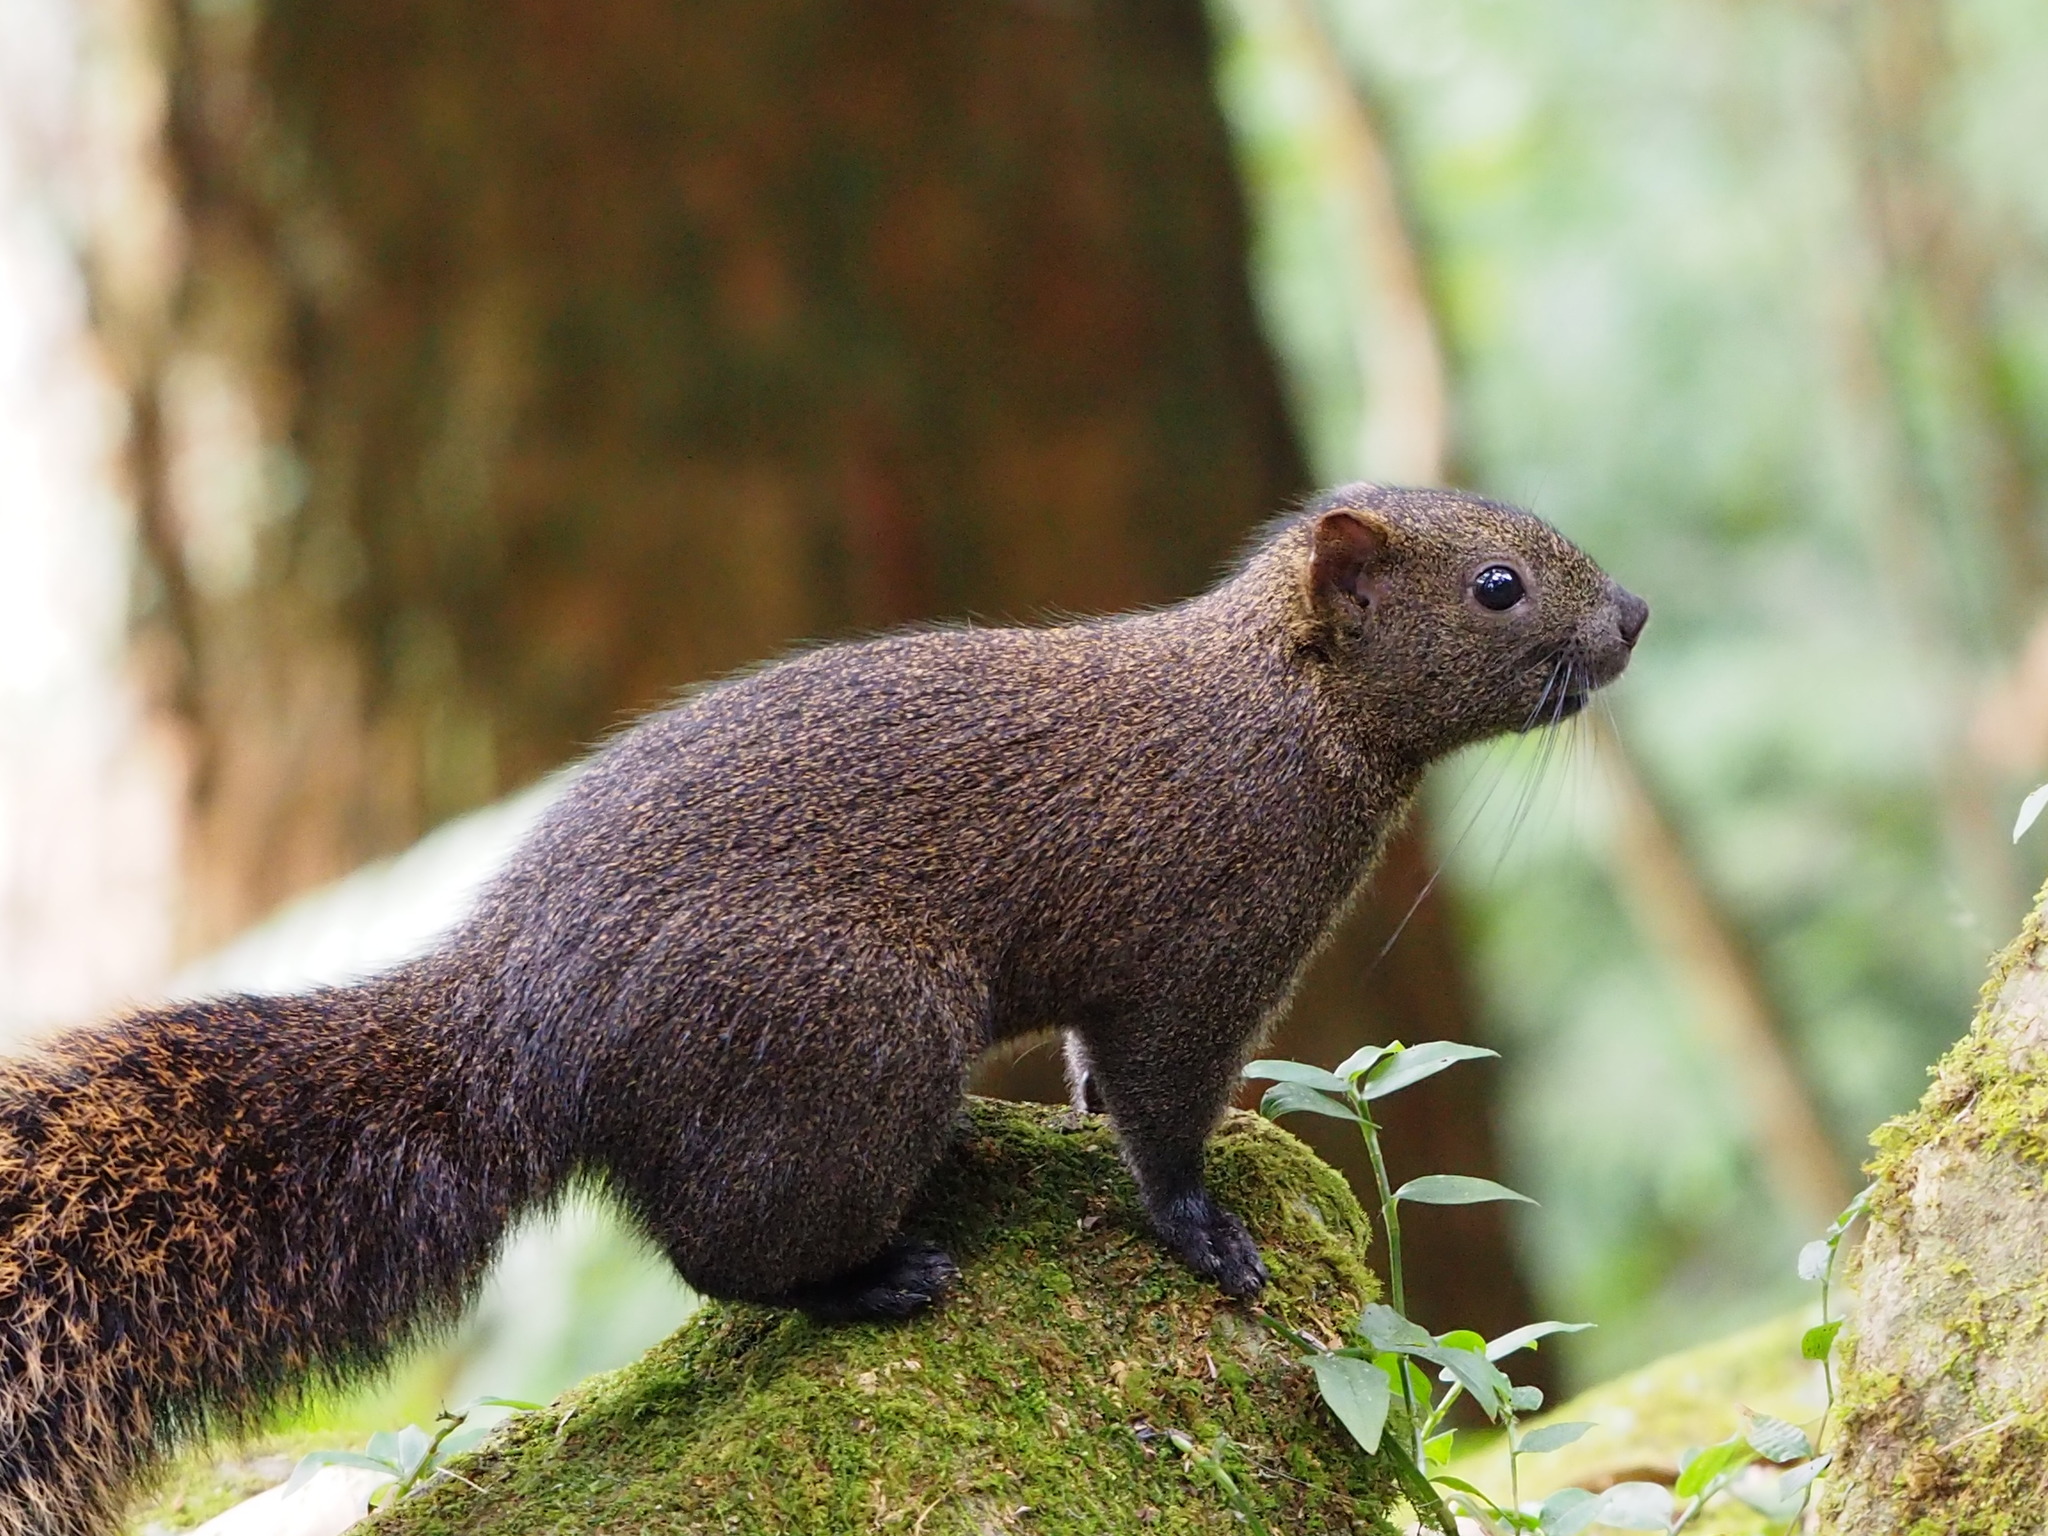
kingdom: Animalia
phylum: Chordata
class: Mammalia
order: Rodentia
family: Sciuridae
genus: Callosciurus
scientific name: Callosciurus erythraeus
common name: Pallas's squirrel
